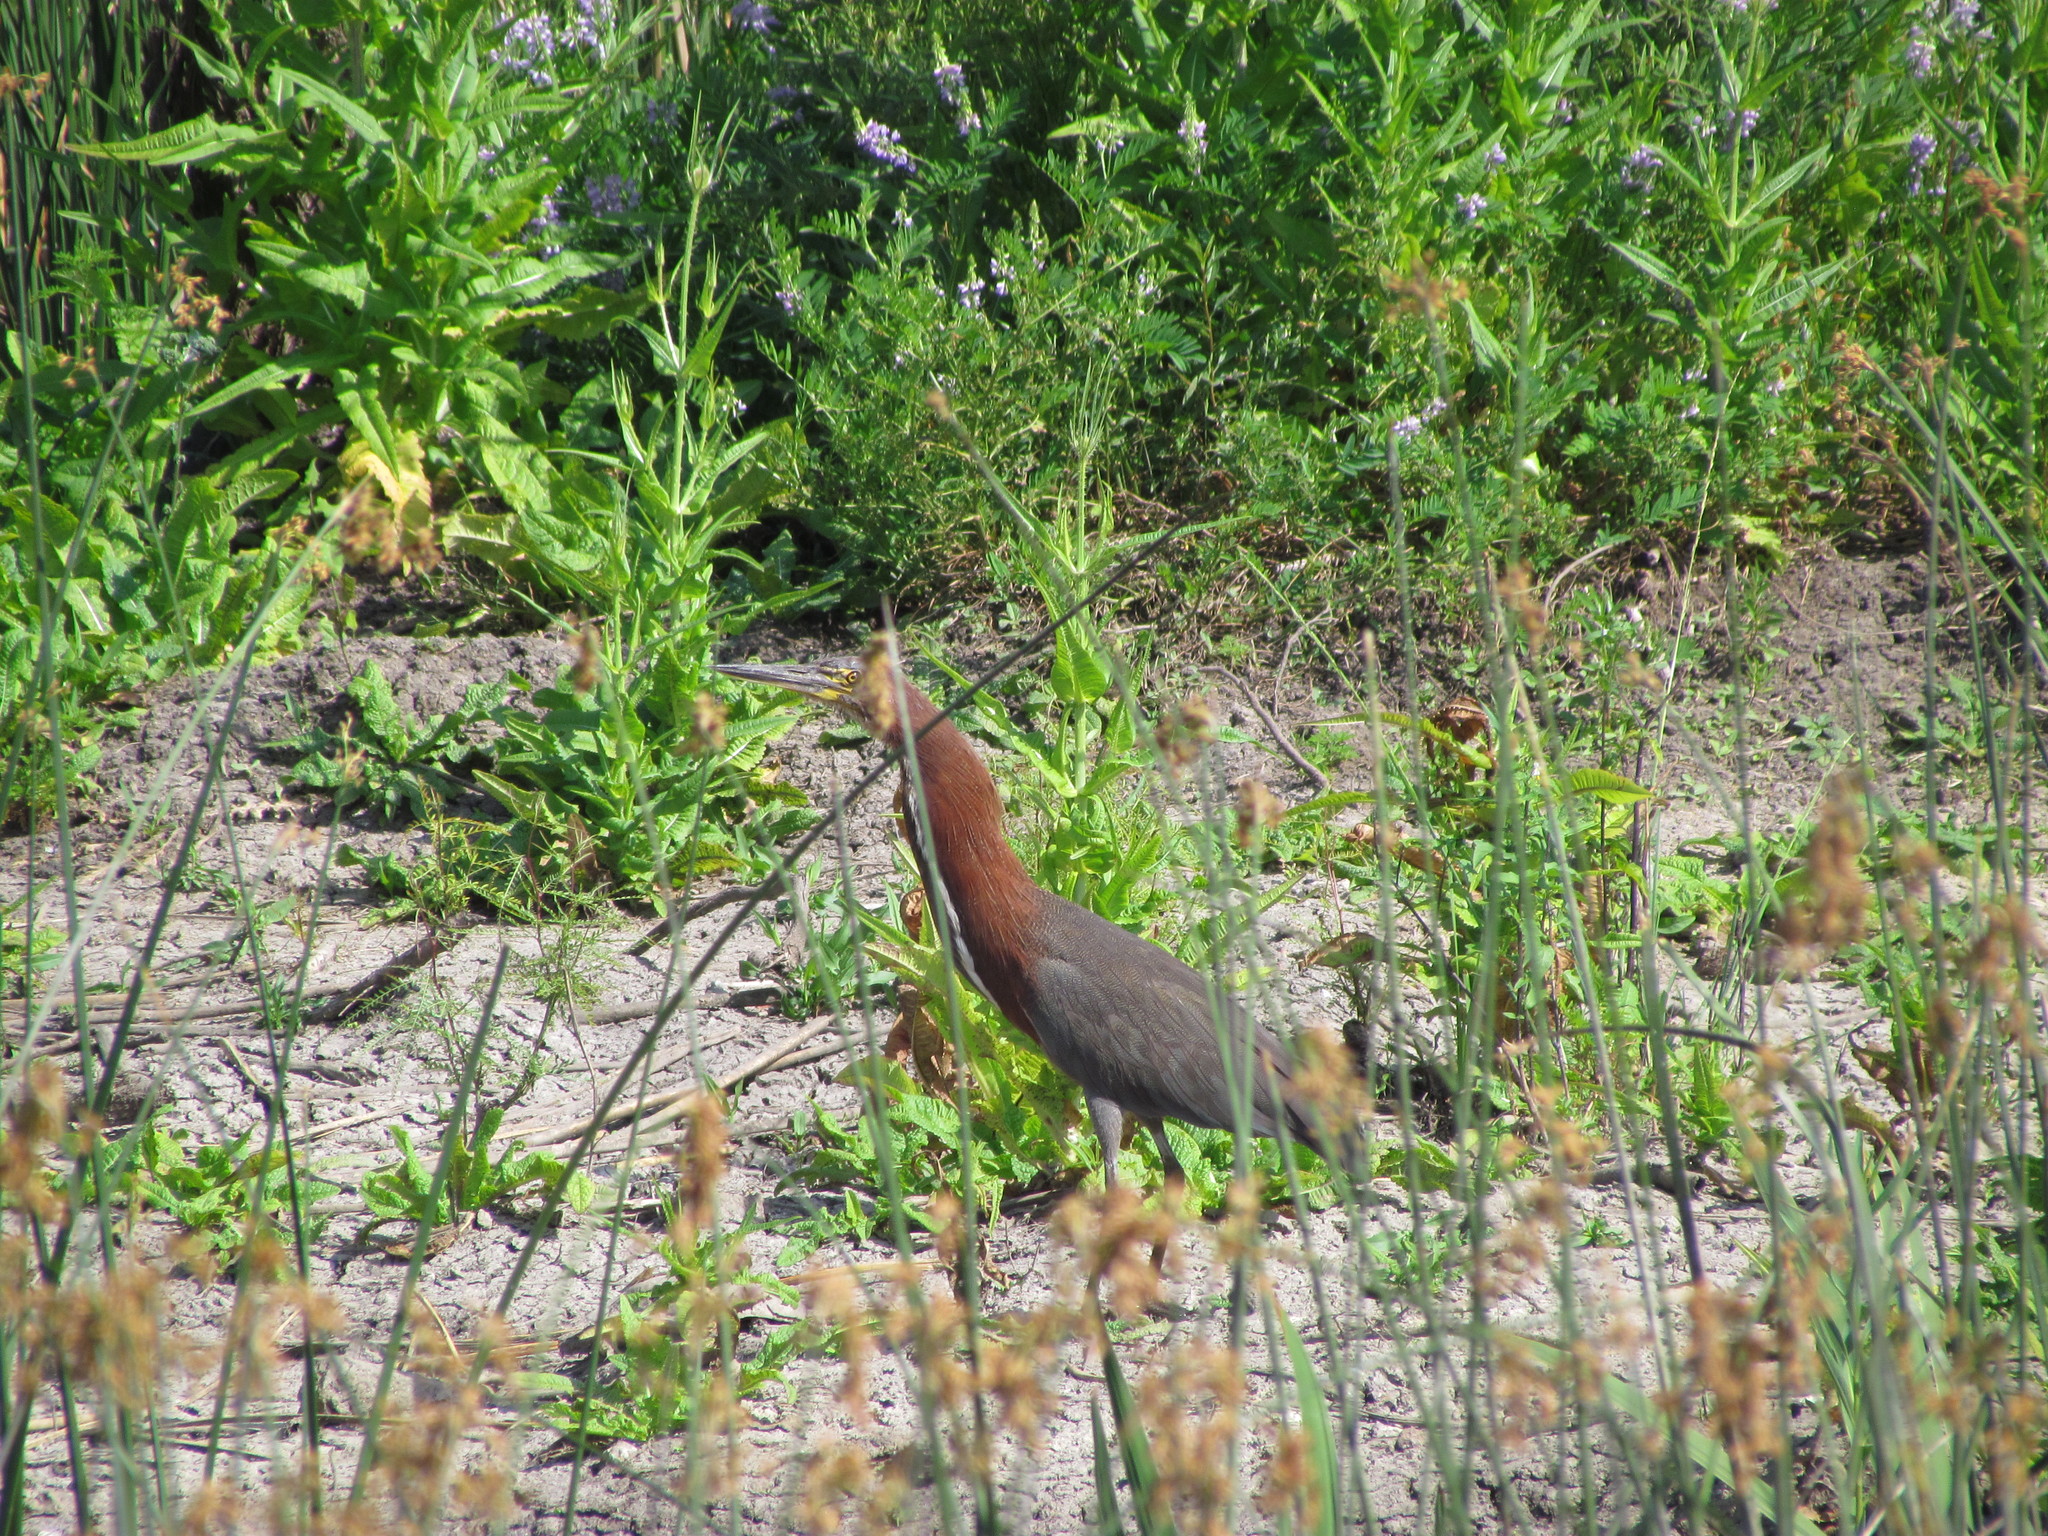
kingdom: Animalia
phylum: Chordata
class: Aves
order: Pelecaniformes
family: Ardeidae
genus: Tigrisoma
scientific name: Tigrisoma lineatum
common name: Rufescent tiger-heron
